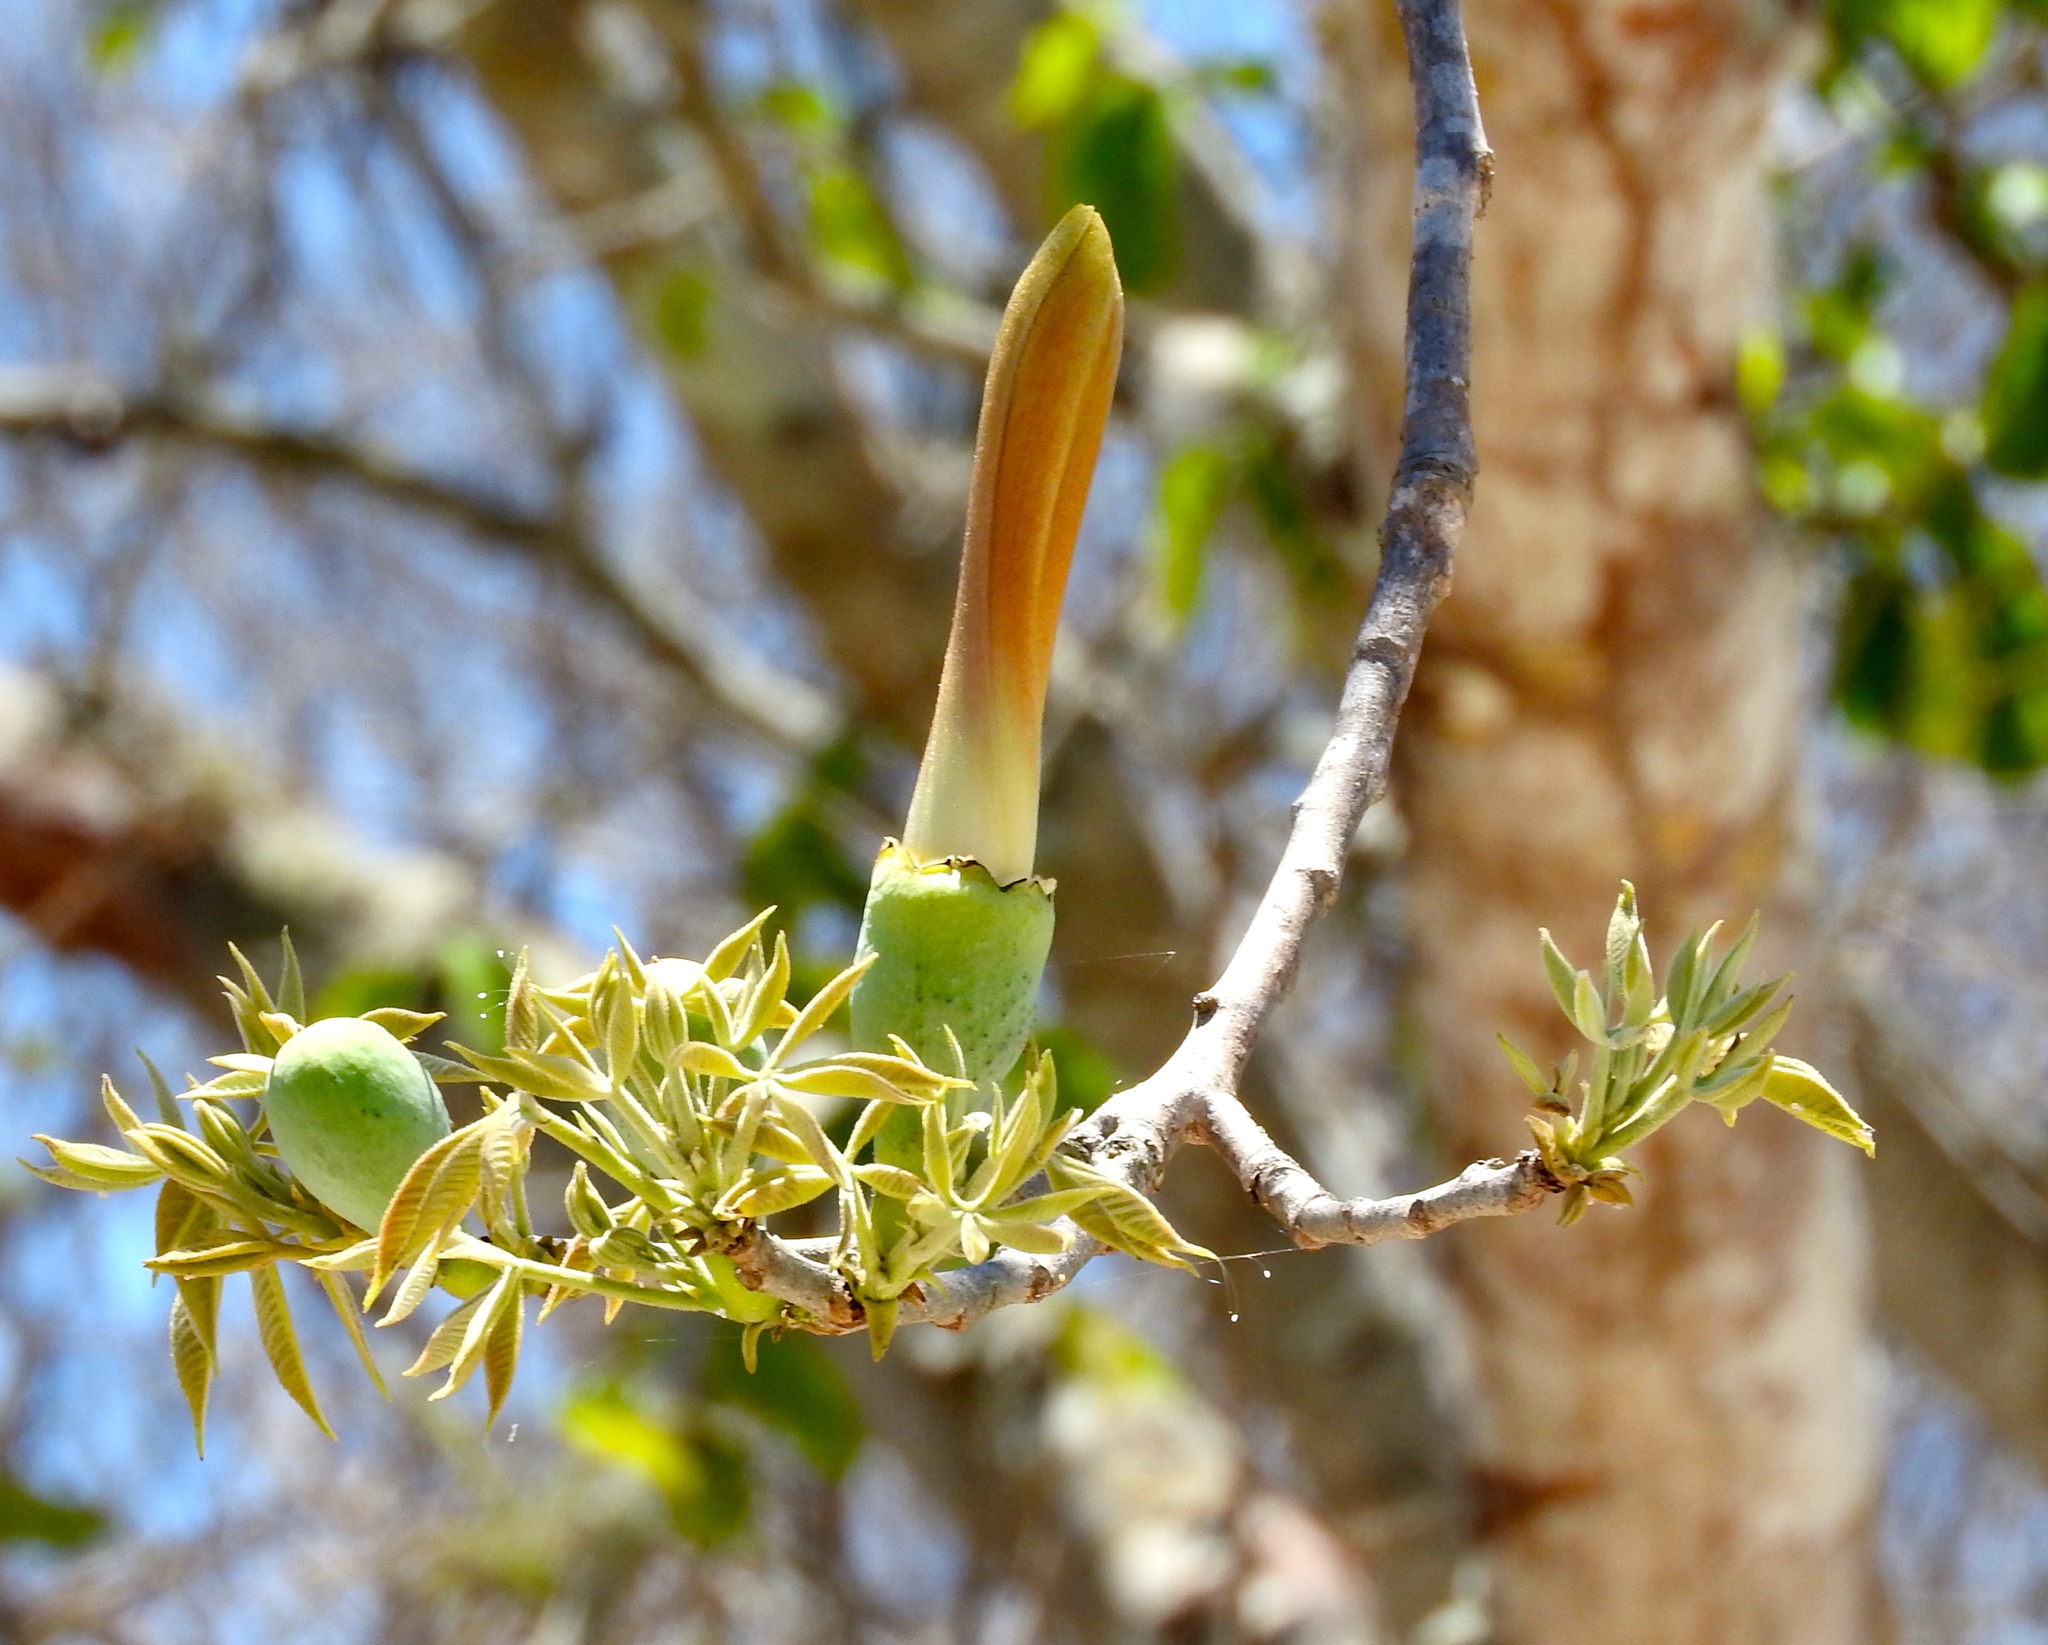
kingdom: Plantae
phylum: Tracheophyta
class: Magnoliopsida
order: Malvales
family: Malvaceae
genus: Ceiba
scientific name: Ceiba aesculifolia
